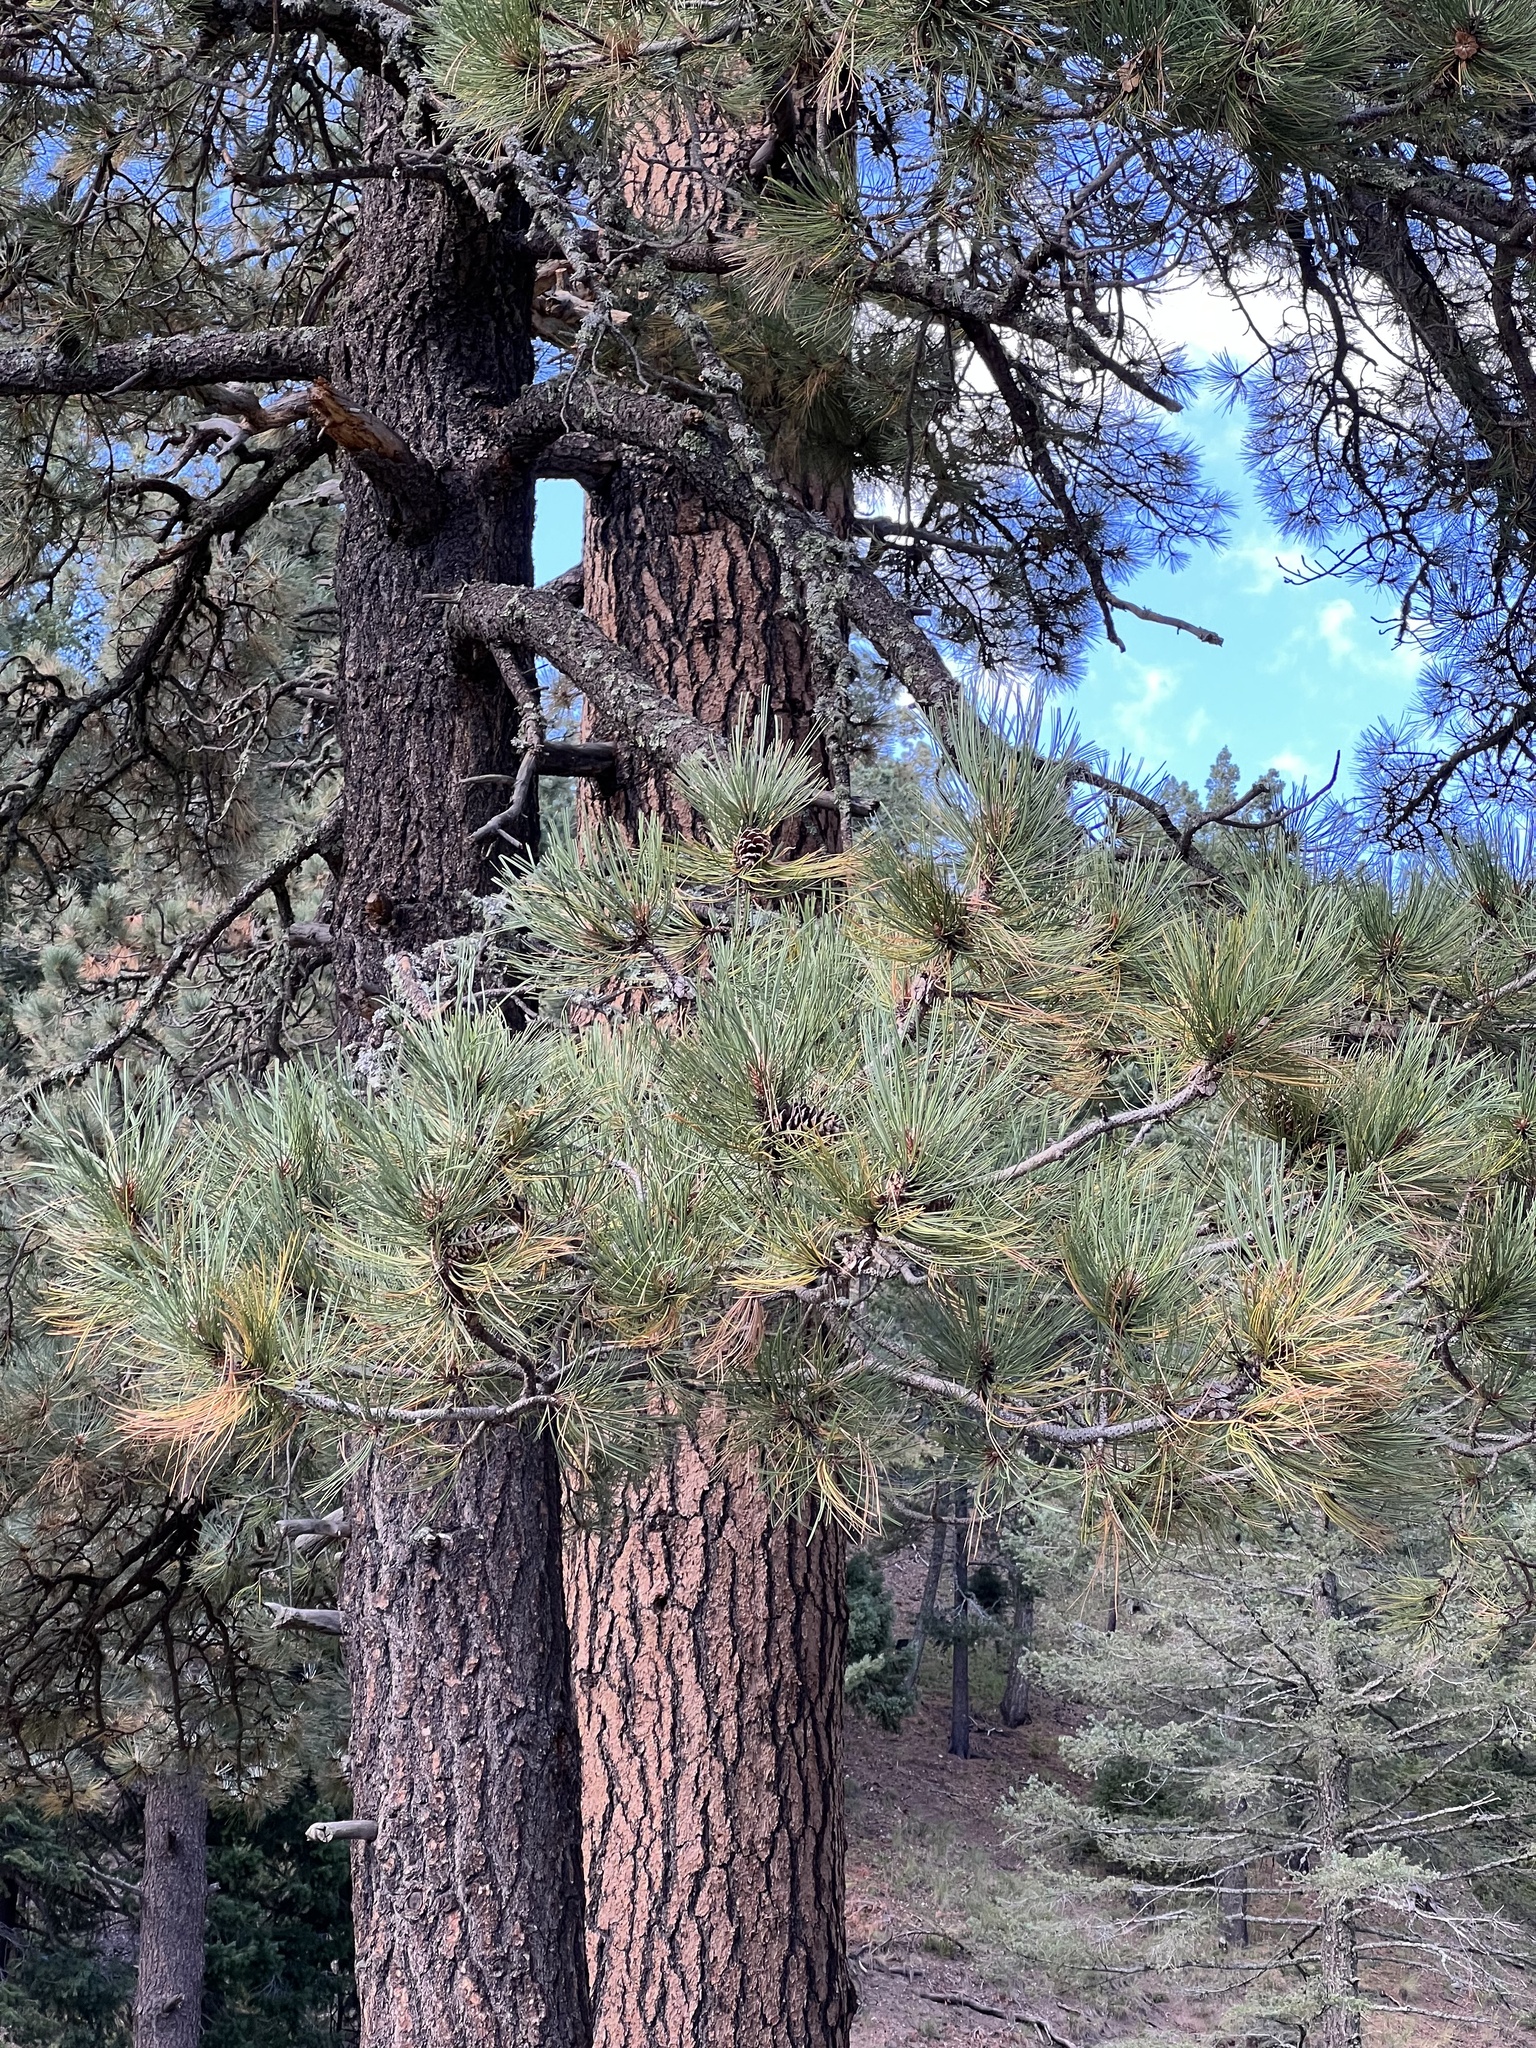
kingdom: Plantae
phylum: Tracheophyta
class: Pinopsida
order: Pinales
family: Pinaceae
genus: Pinus
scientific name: Pinus ponderosa
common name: Western yellow-pine
